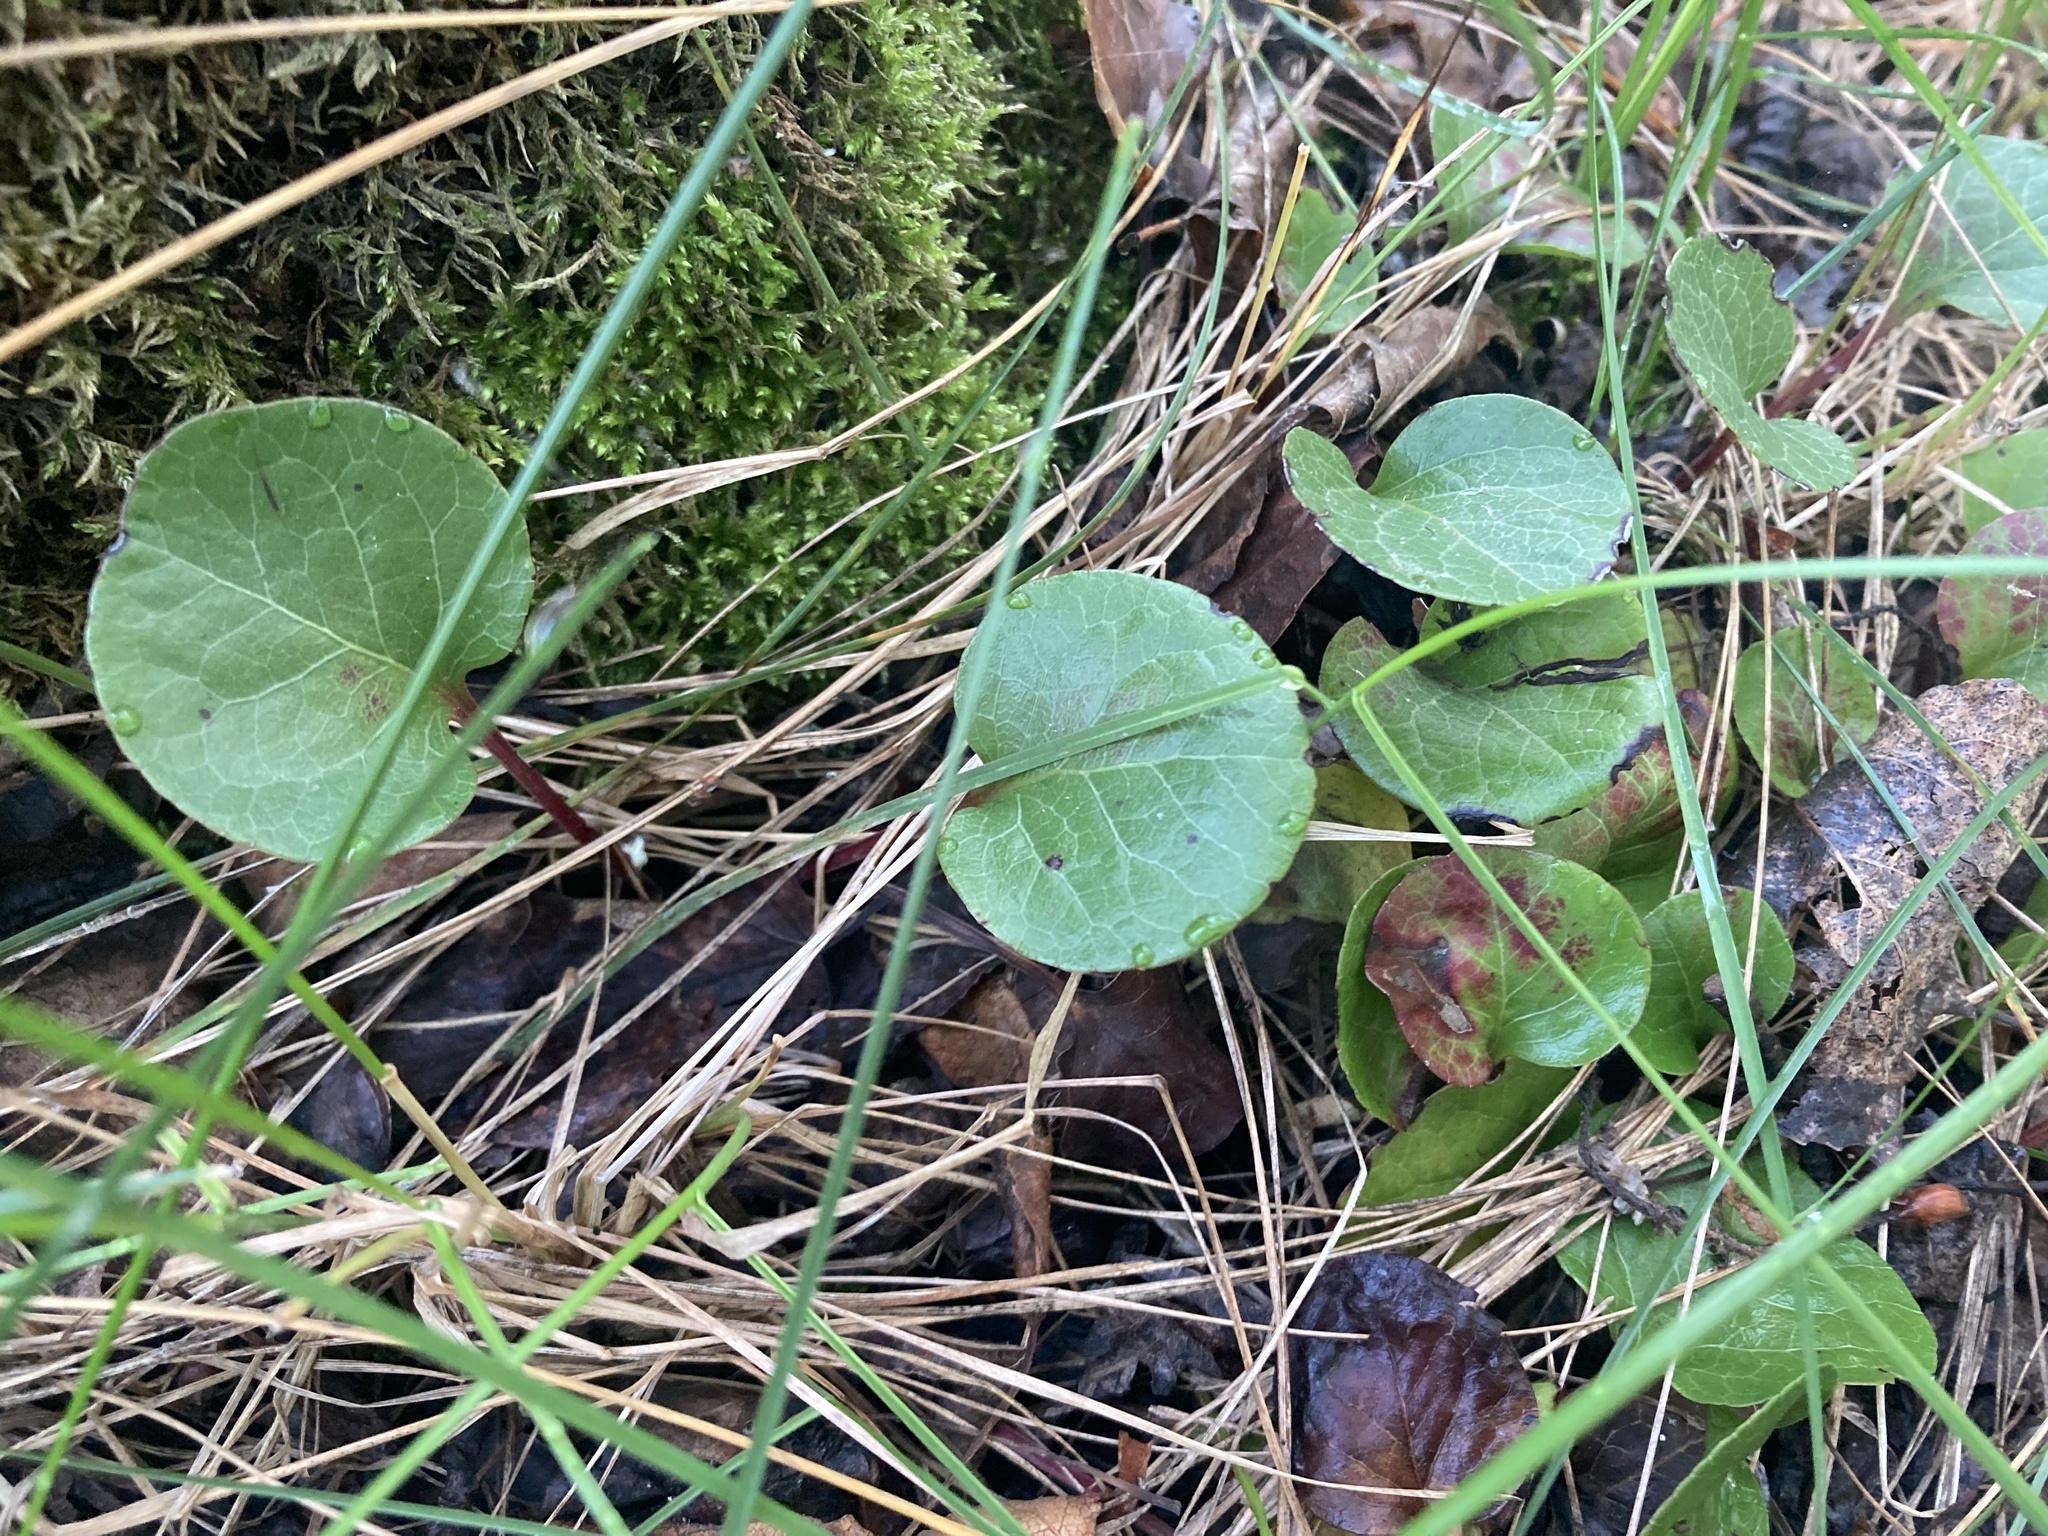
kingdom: Plantae
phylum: Tracheophyta
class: Magnoliopsida
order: Ericales
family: Ericaceae
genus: Pyrola
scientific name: Pyrola asarifolia
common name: Bog wintergreen
